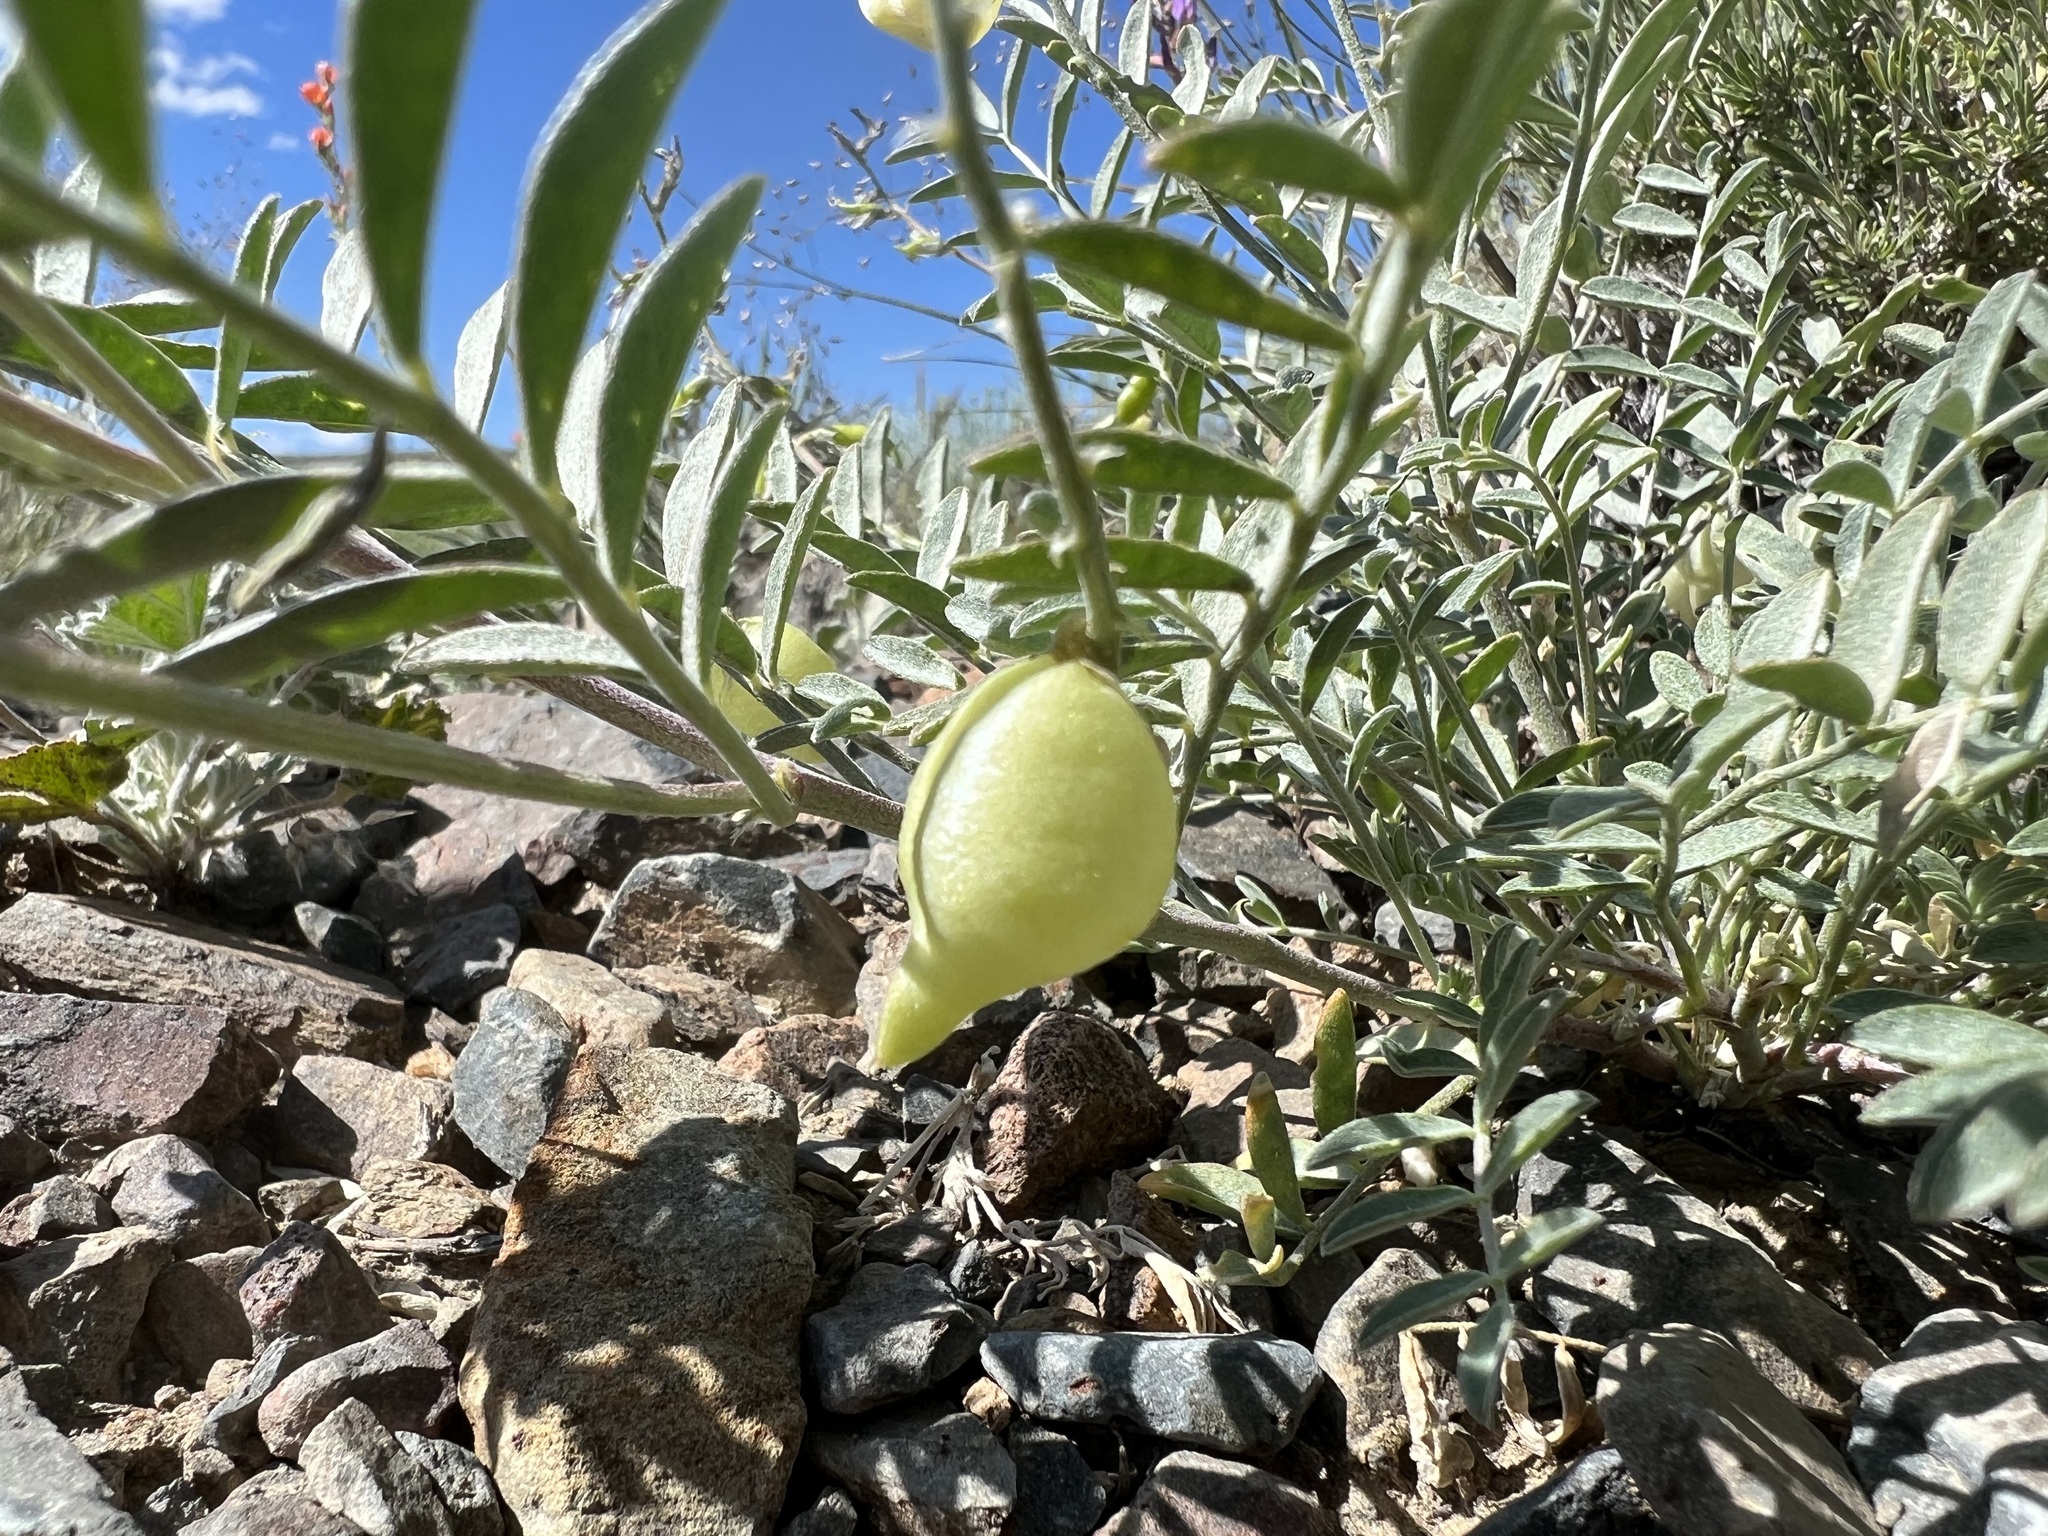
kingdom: Plantae
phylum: Tracheophyta
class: Magnoliopsida
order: Fabales
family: Fabaceae
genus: Astragalus
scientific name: Astragalus lentiginosus
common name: Freckled milkvetch
